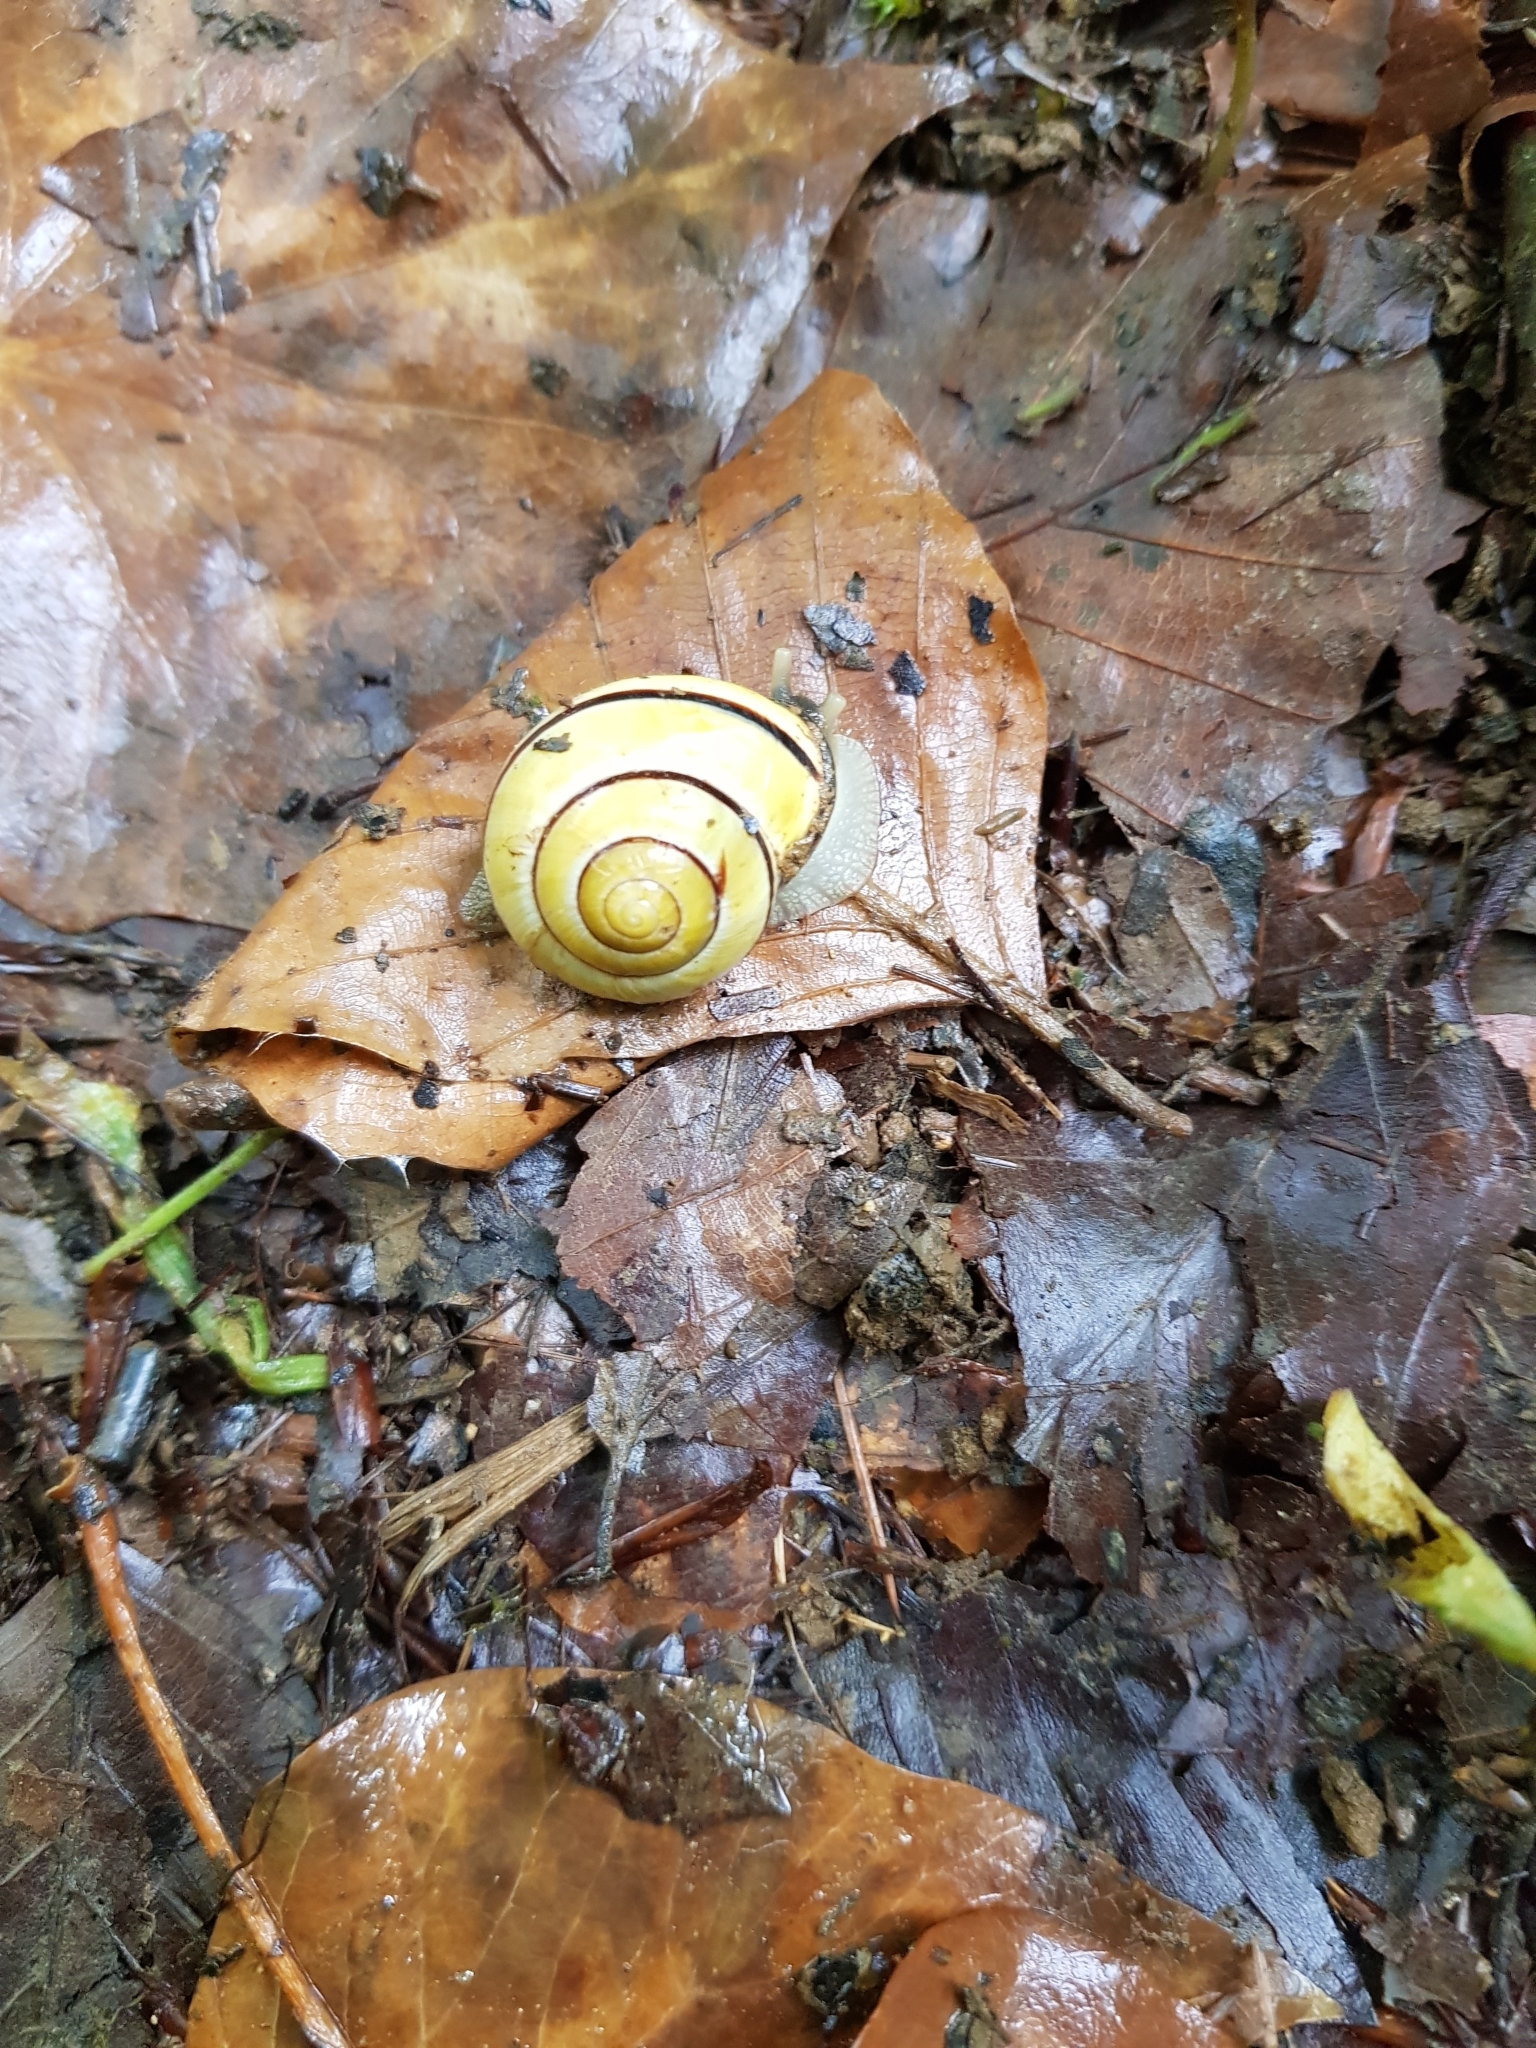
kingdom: Animalia
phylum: Mollusca
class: Gastropoda
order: Stylommatophora
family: Helicidae
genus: Cepaea
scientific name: Cepaea nemoralis
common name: Grovesnail
